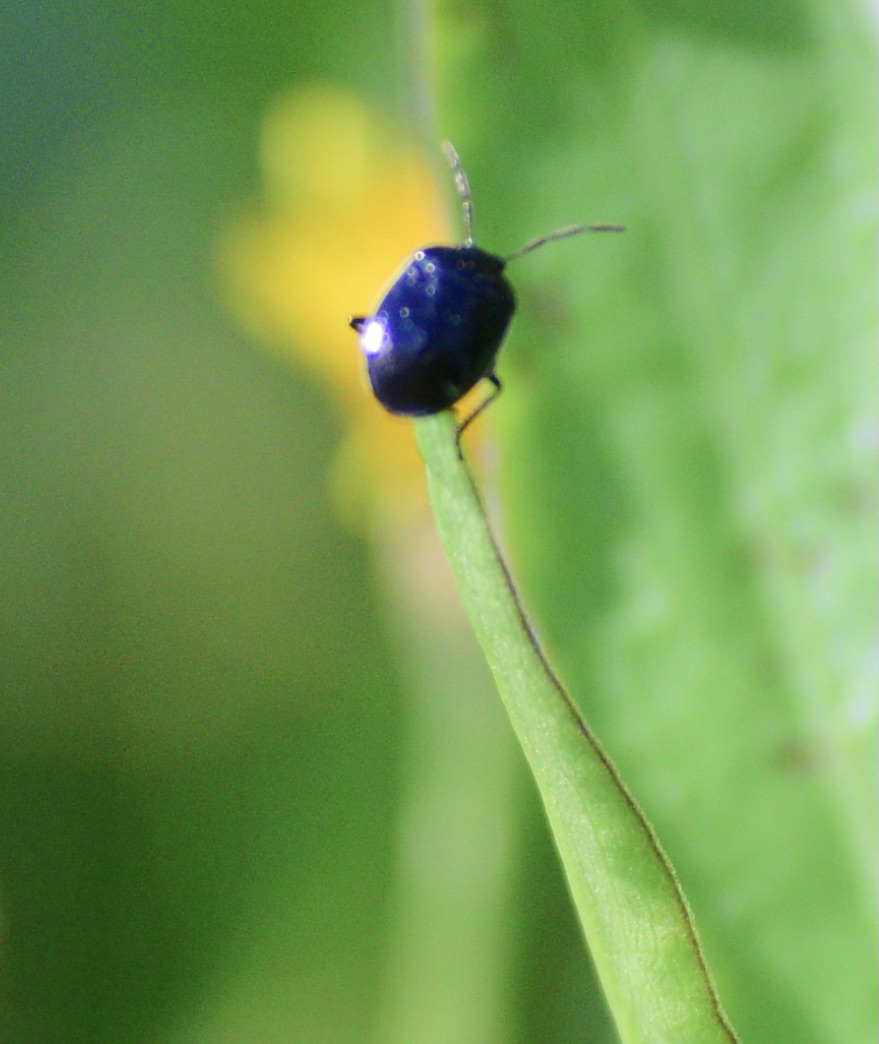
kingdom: Animalia
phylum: Arthropoda
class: Insecta
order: Hemiptera
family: Cydnidae
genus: Sehirus
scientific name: Sehirus cinctus
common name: White-margined burrower bug
